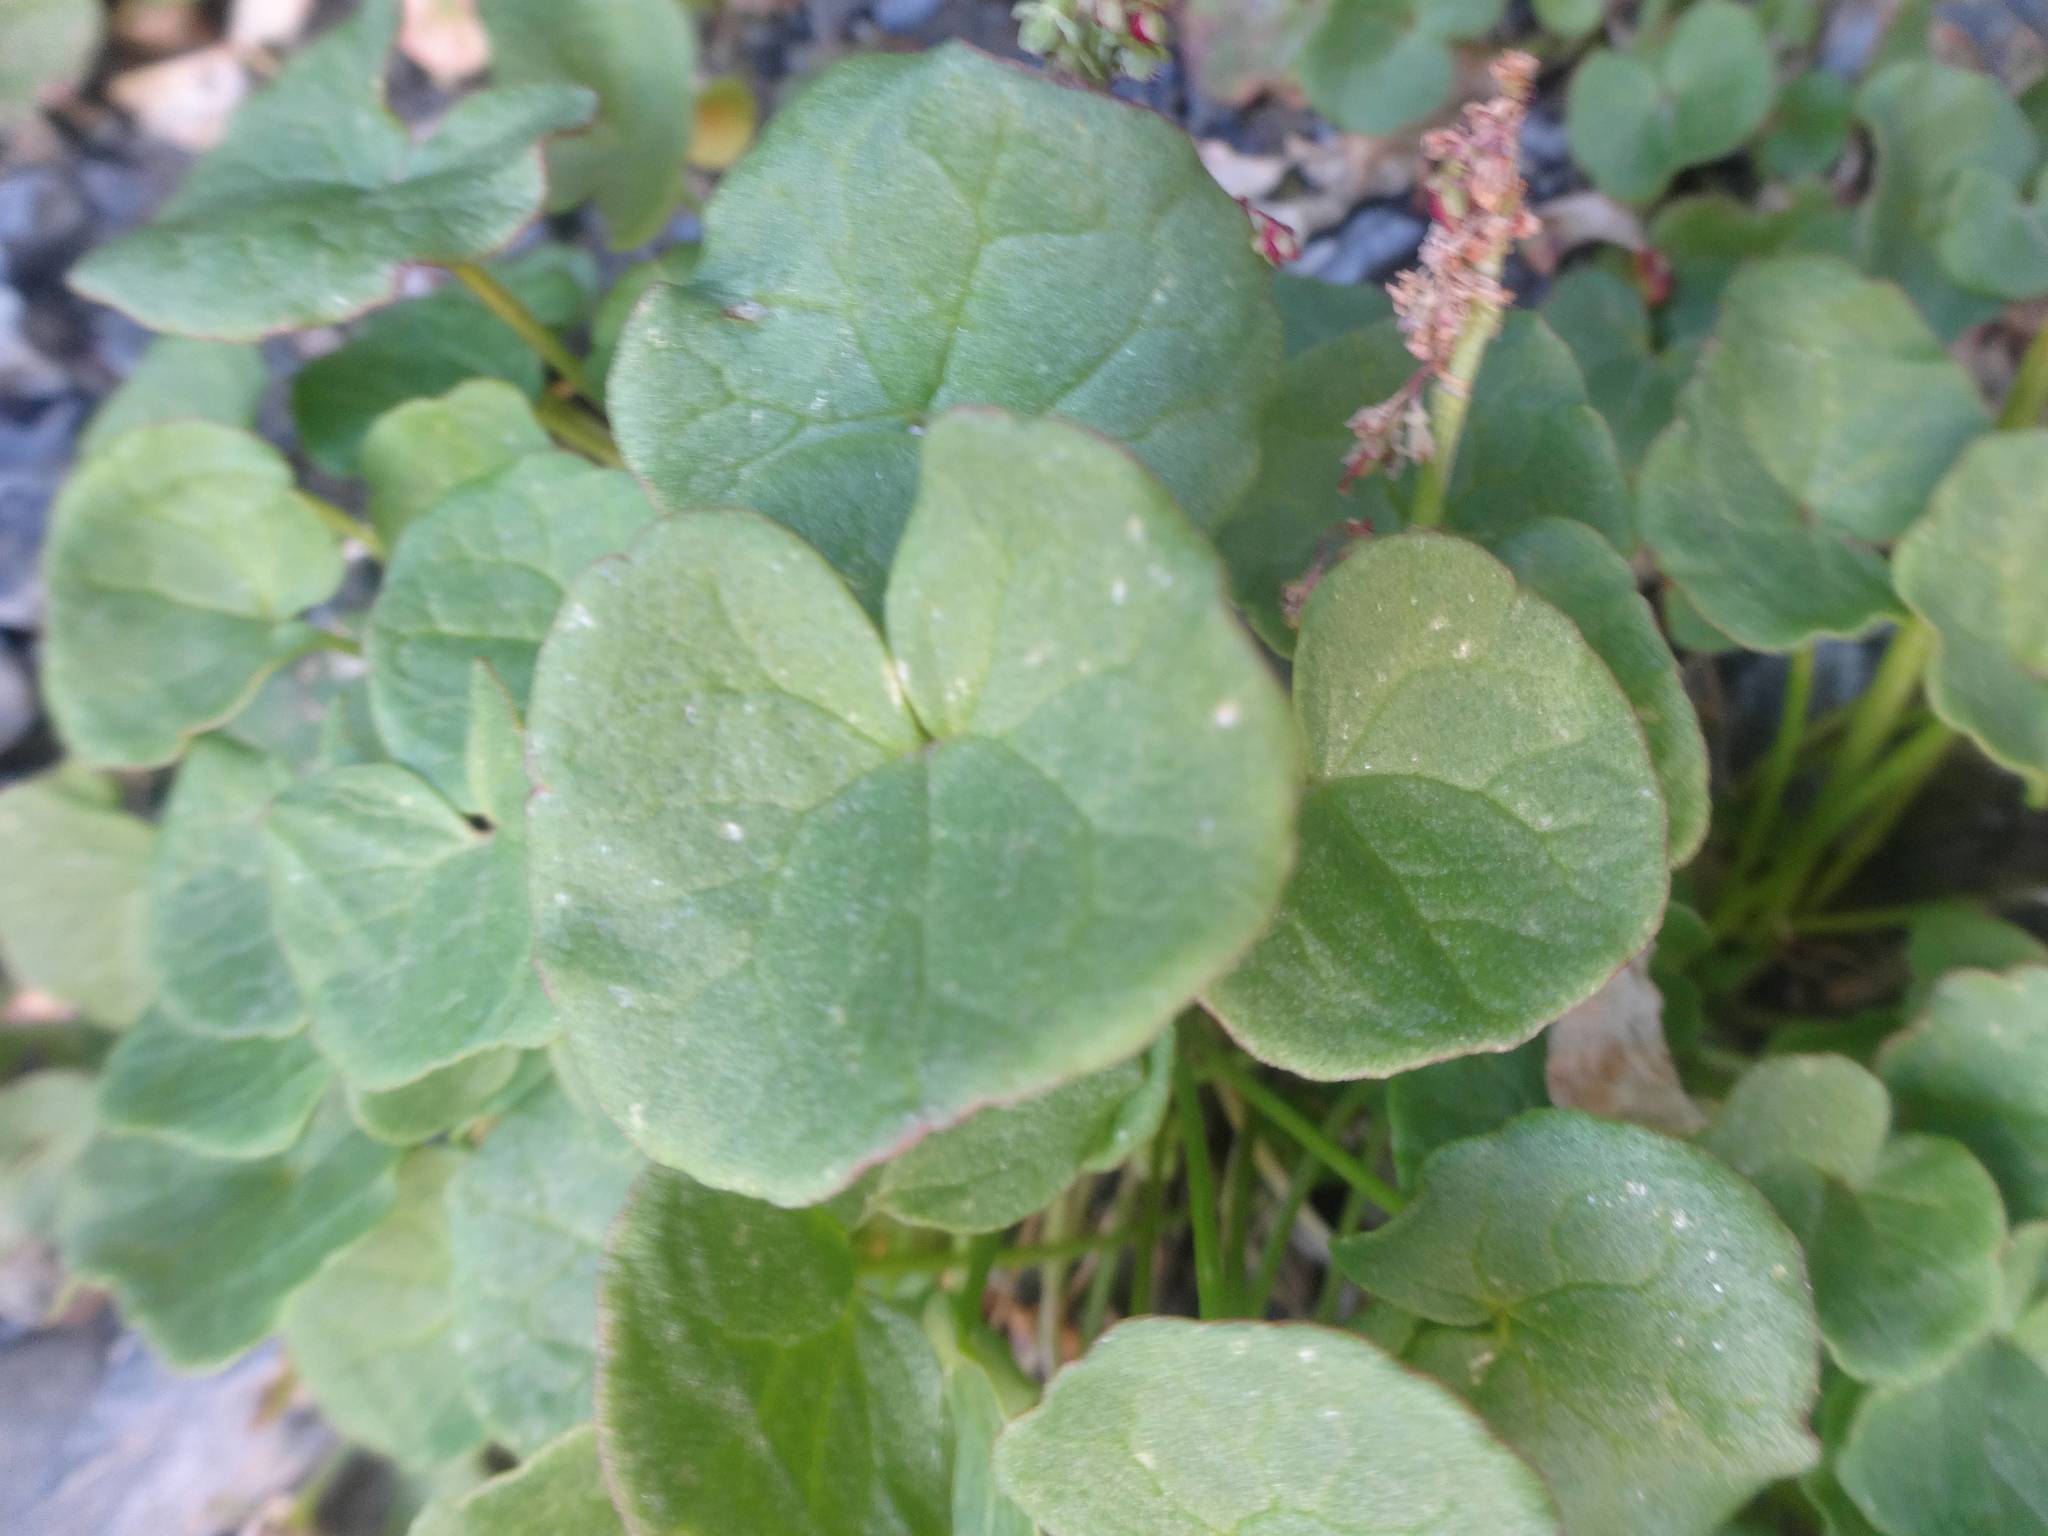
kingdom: Plantae
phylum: Tracheophyta
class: Magnoliopsida
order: Caryophyllales
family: Polygonaceae
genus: Oxyria
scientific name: Oxyria digyna
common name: Alpine mountain-sorrel
